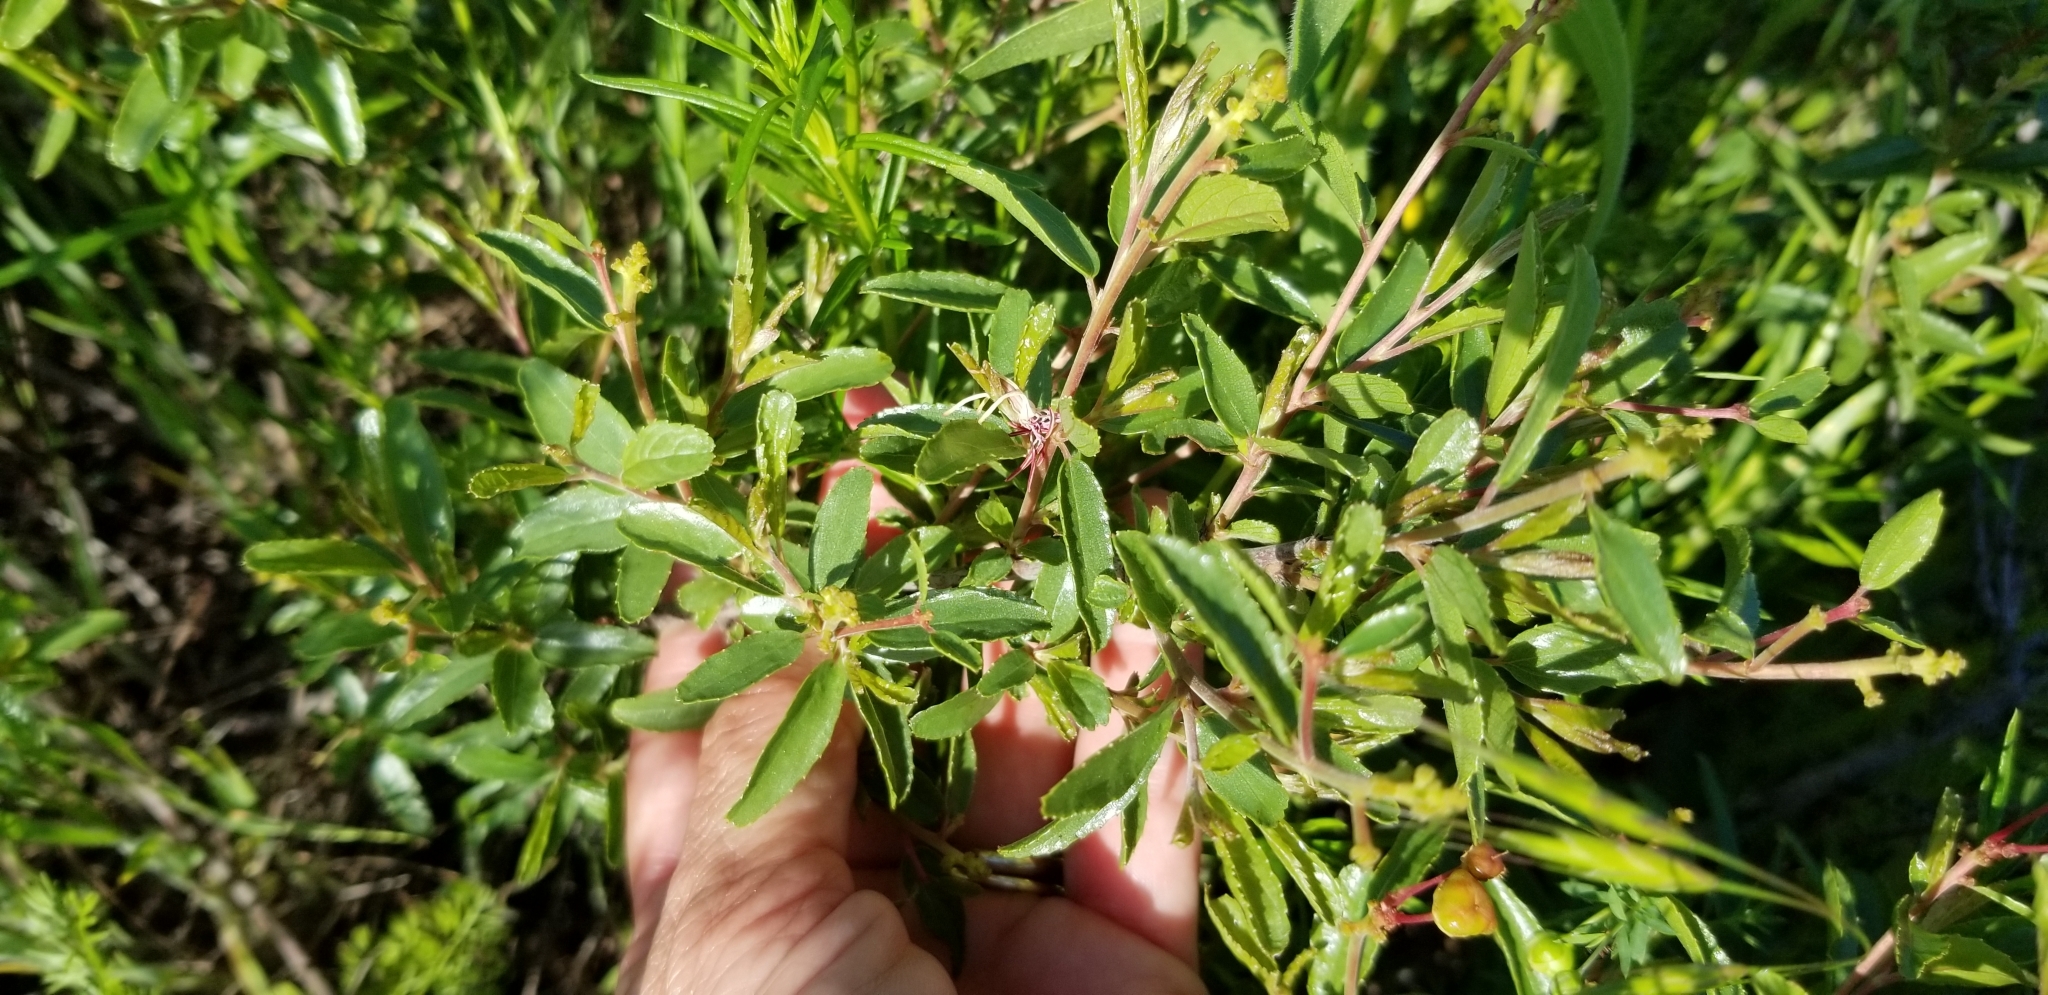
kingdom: Plantae
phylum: Tracheophyta
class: Magnoliopsida
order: Rosales
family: Rhamnaceae
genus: Ceanothus
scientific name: Ceanothus herbaceus
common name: Inland ceanothus
